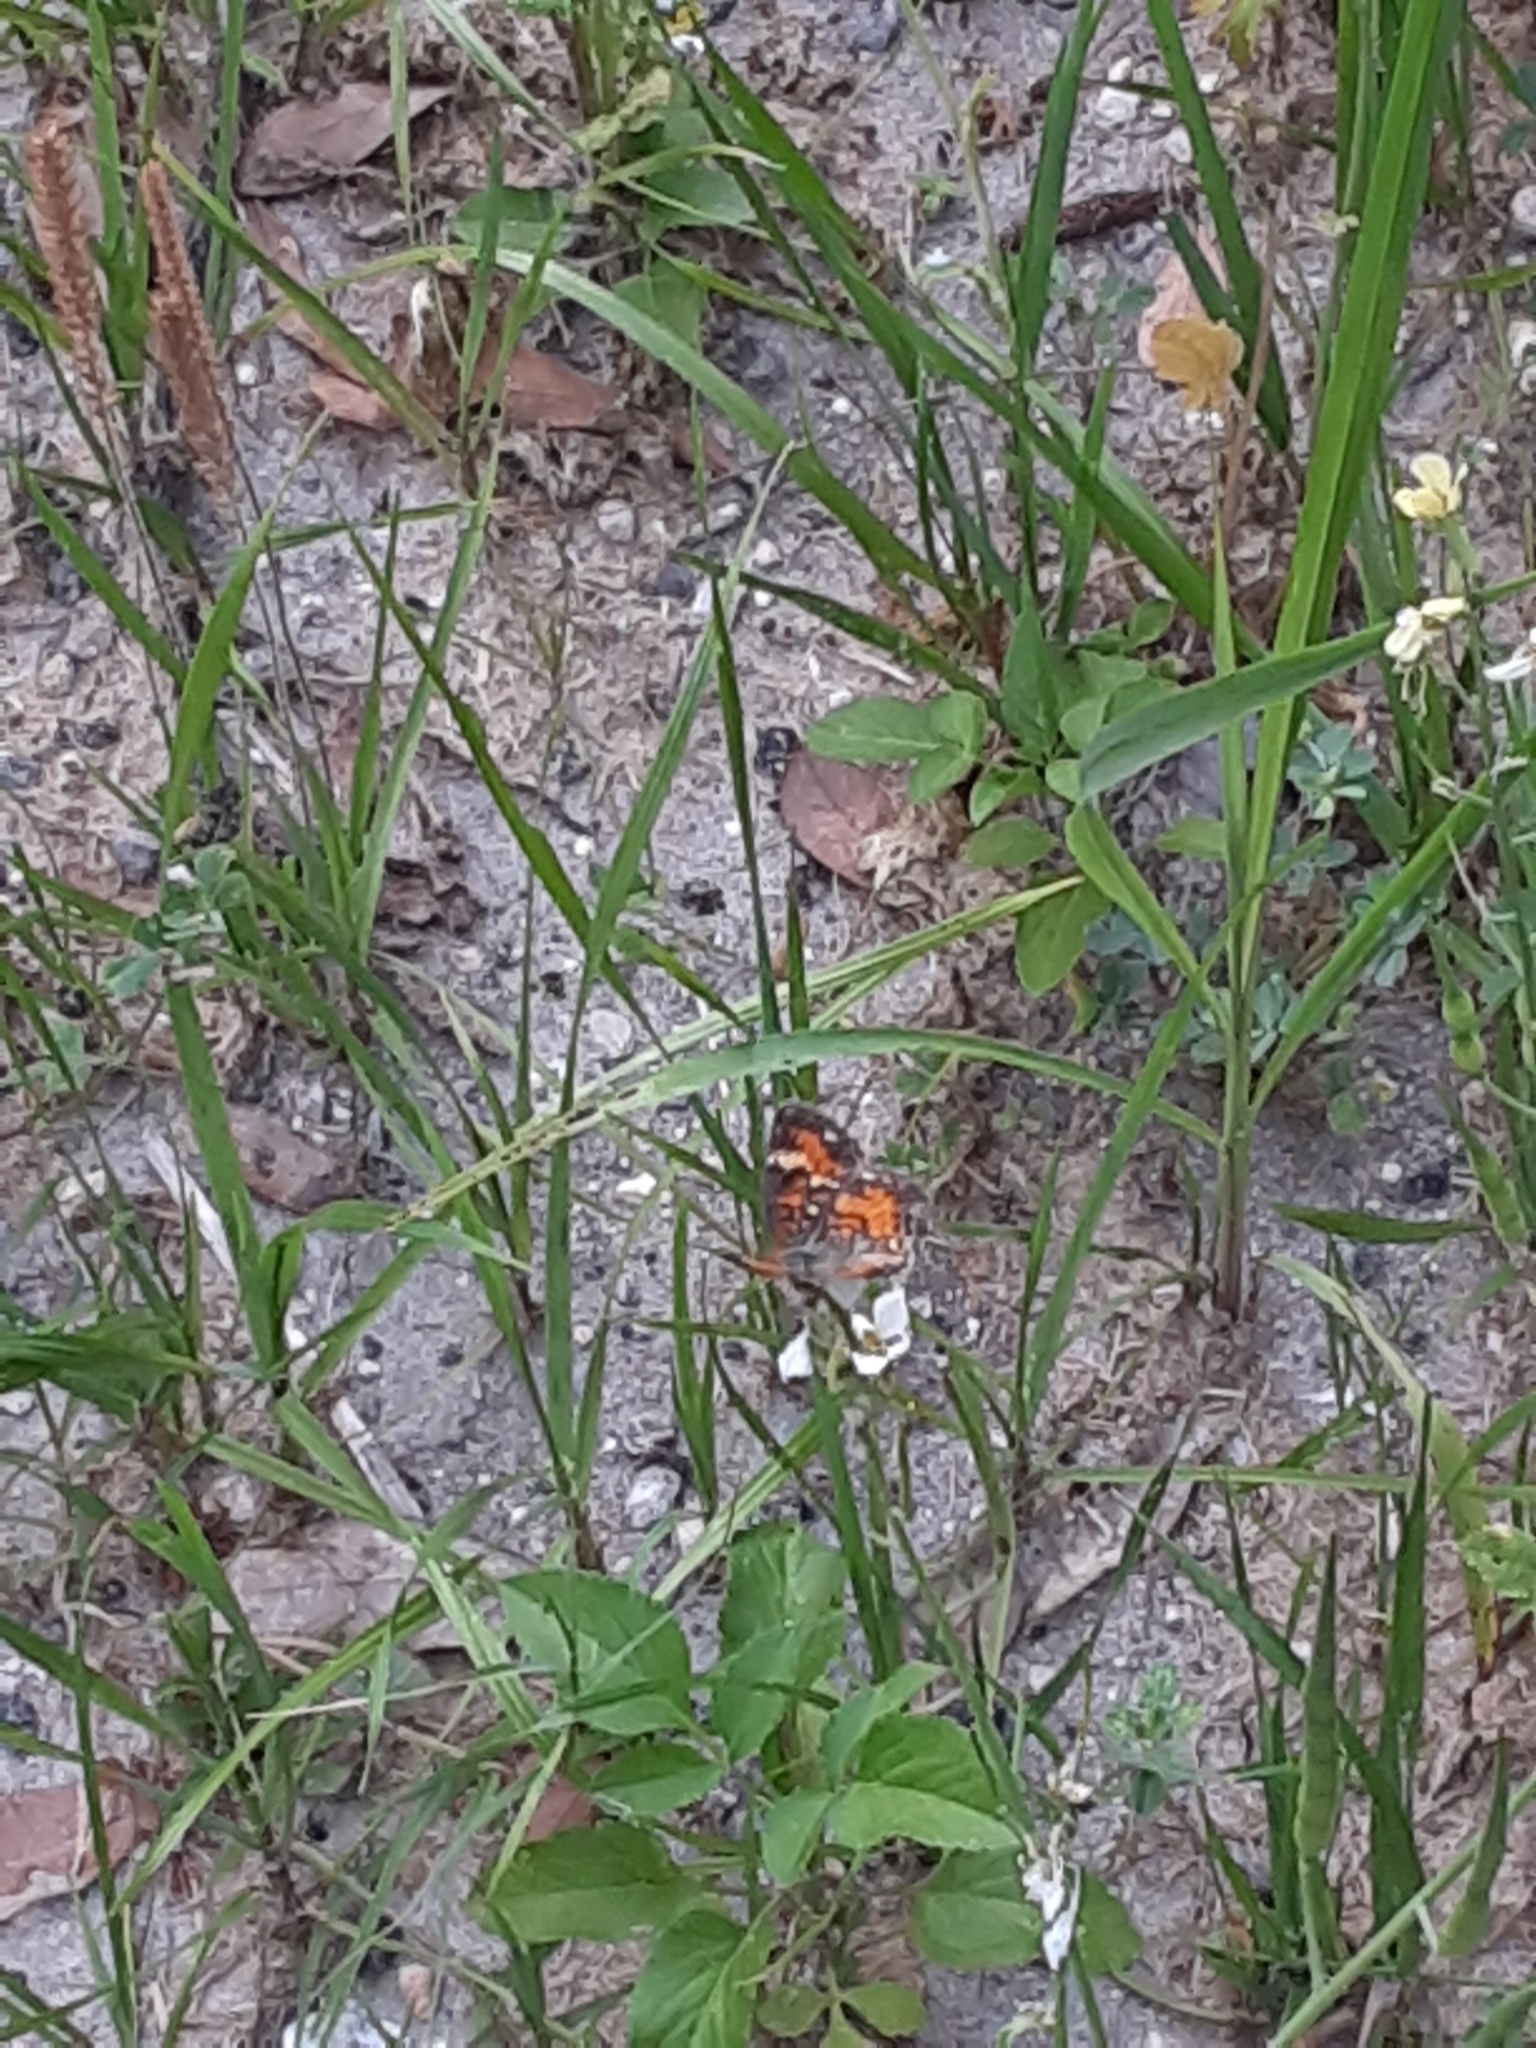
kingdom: Animalia
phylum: Arthropoda
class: Insecta
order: Lepidoptera
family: Nymphalidae
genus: Phyciodes
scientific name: Phyciodes phaon
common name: Phaon crescent
